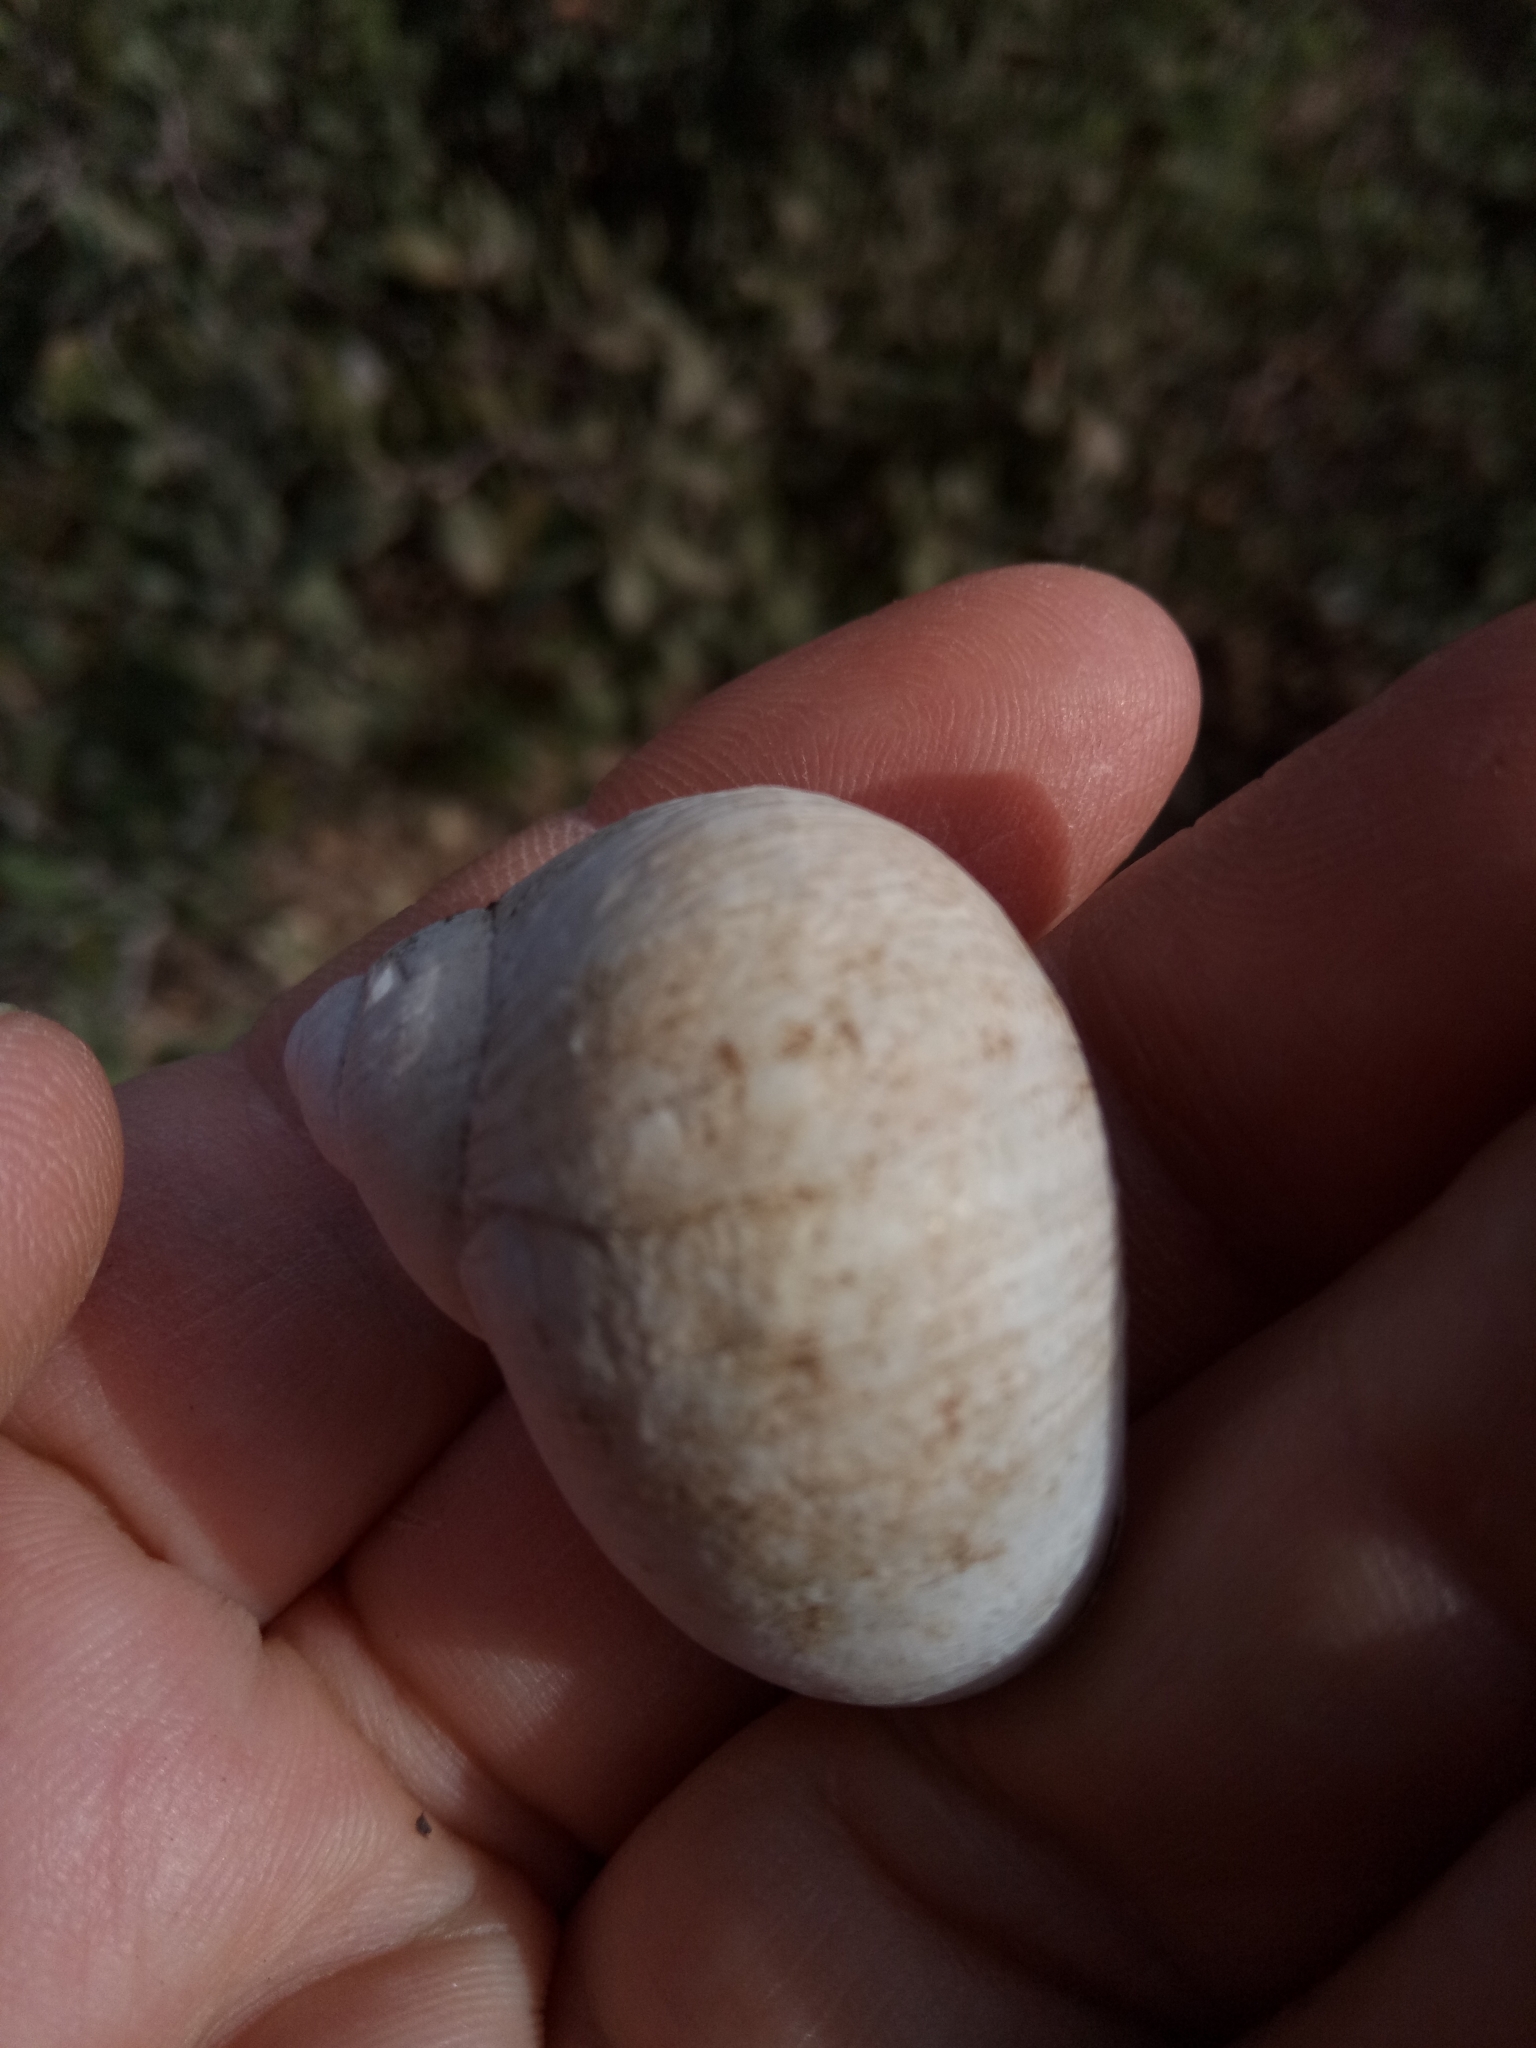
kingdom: Animalia
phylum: Mollusca
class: Gastropoda
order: Stylommatophora
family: Helicidae
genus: Cornu
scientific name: Cornu aspersum
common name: Brown garden snail
